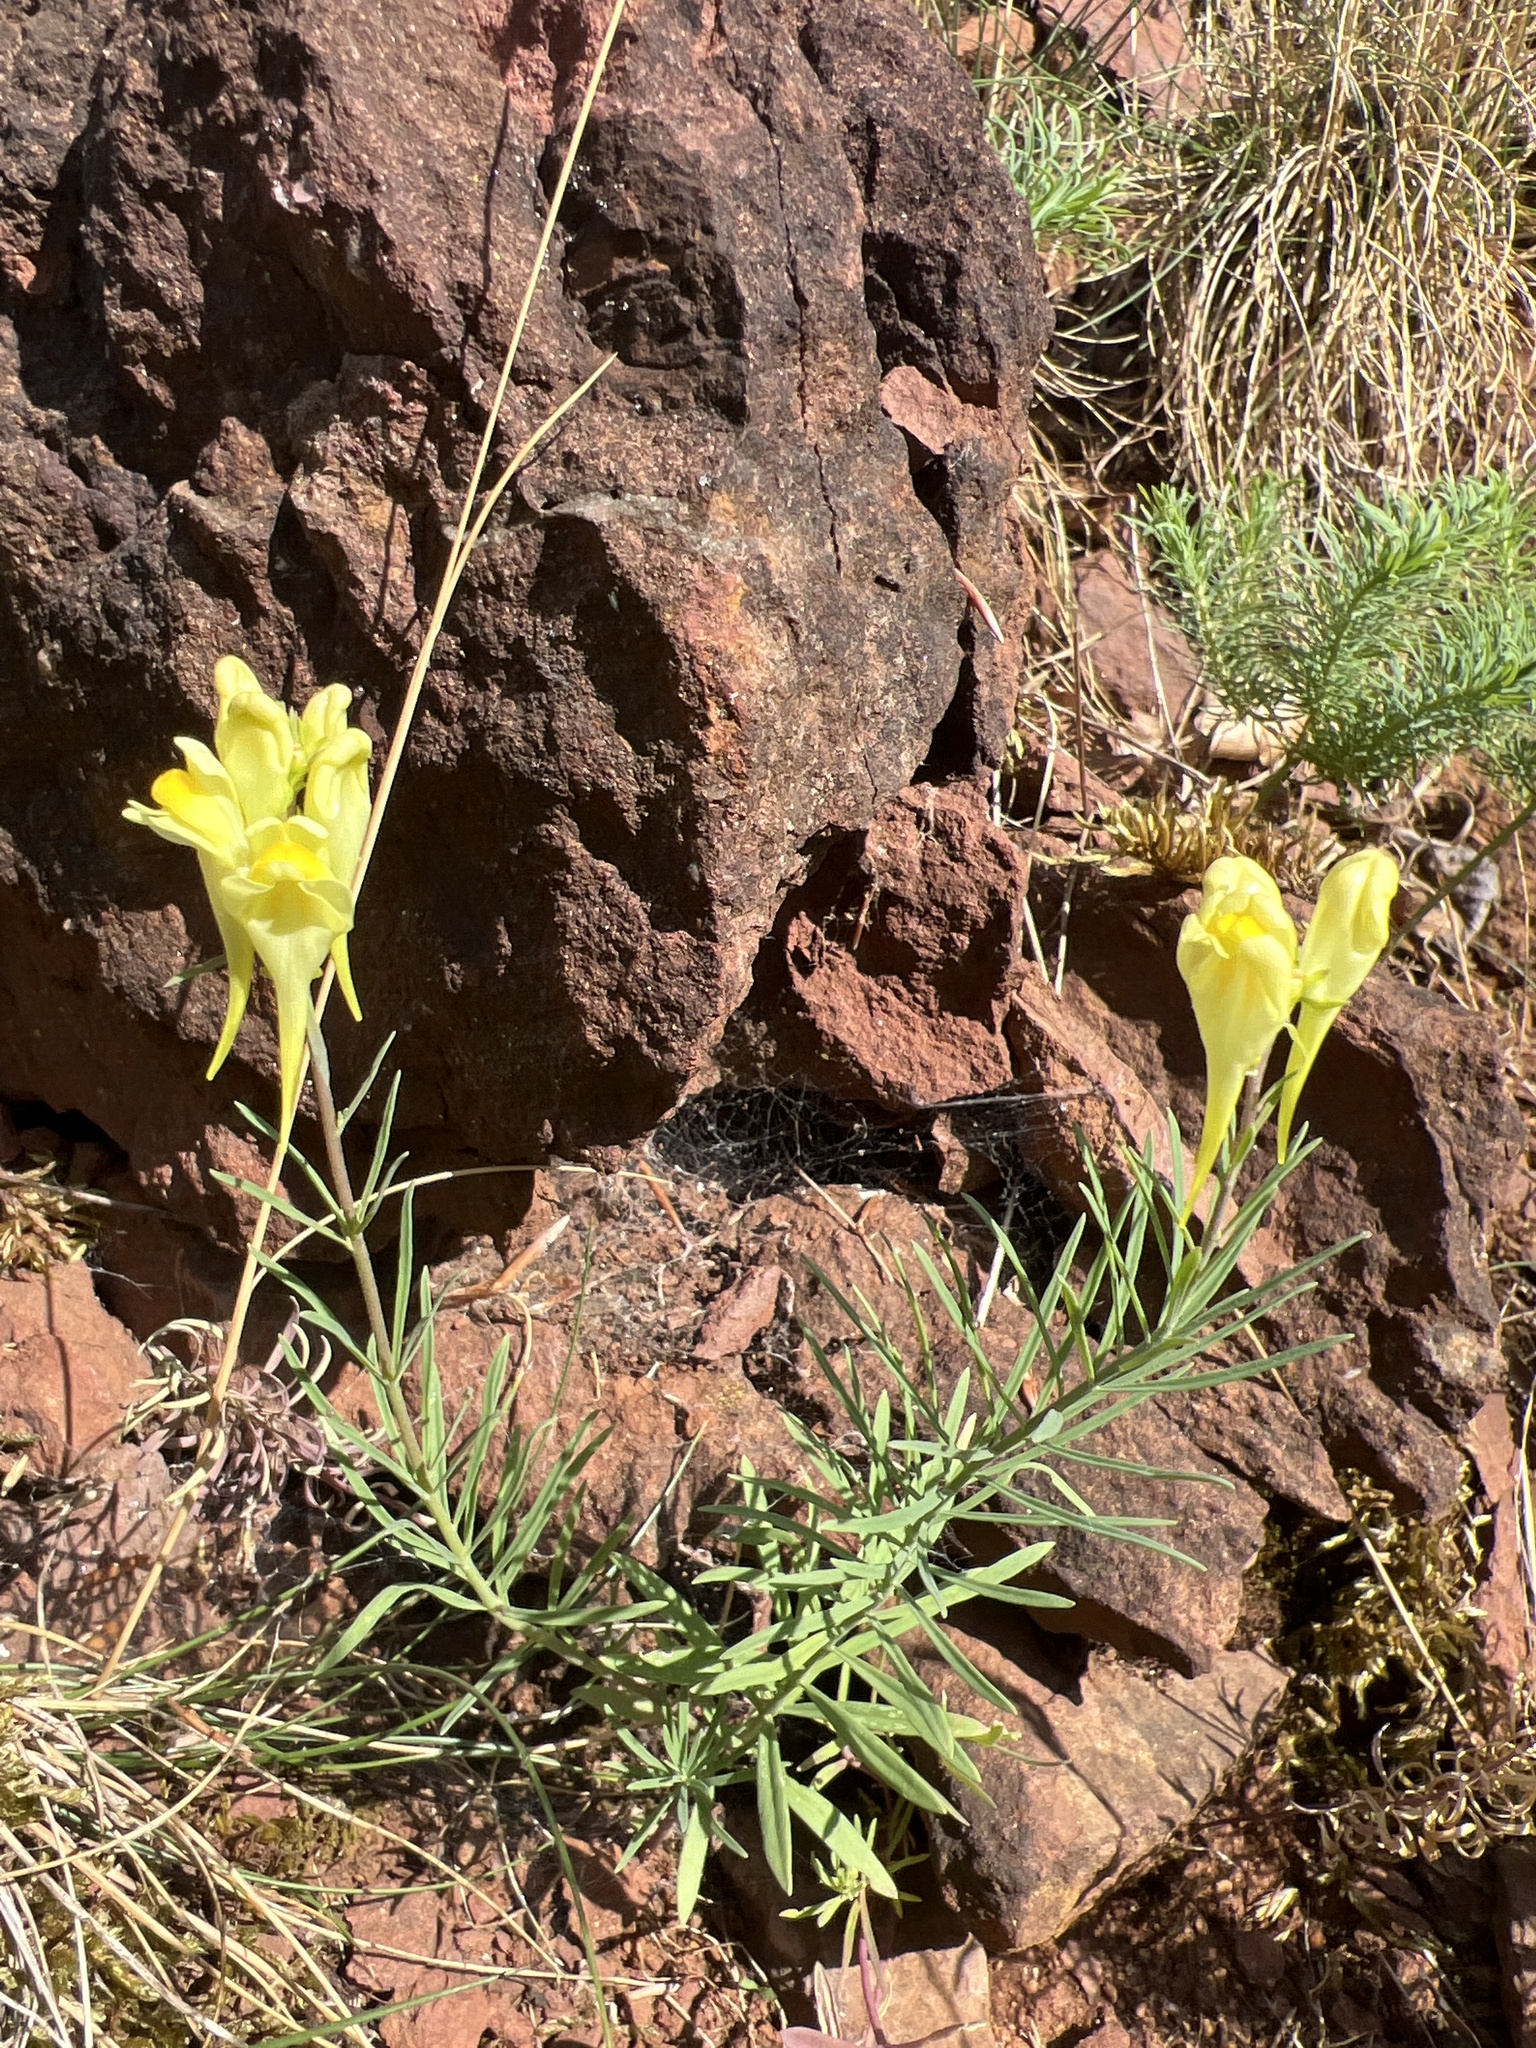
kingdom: Plantae
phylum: Tracheophyta
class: Magnoliopsida
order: Lamiales
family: Plantaginaceae
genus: Linaria
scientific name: Linaria vulgaris
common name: Butter and eggs
